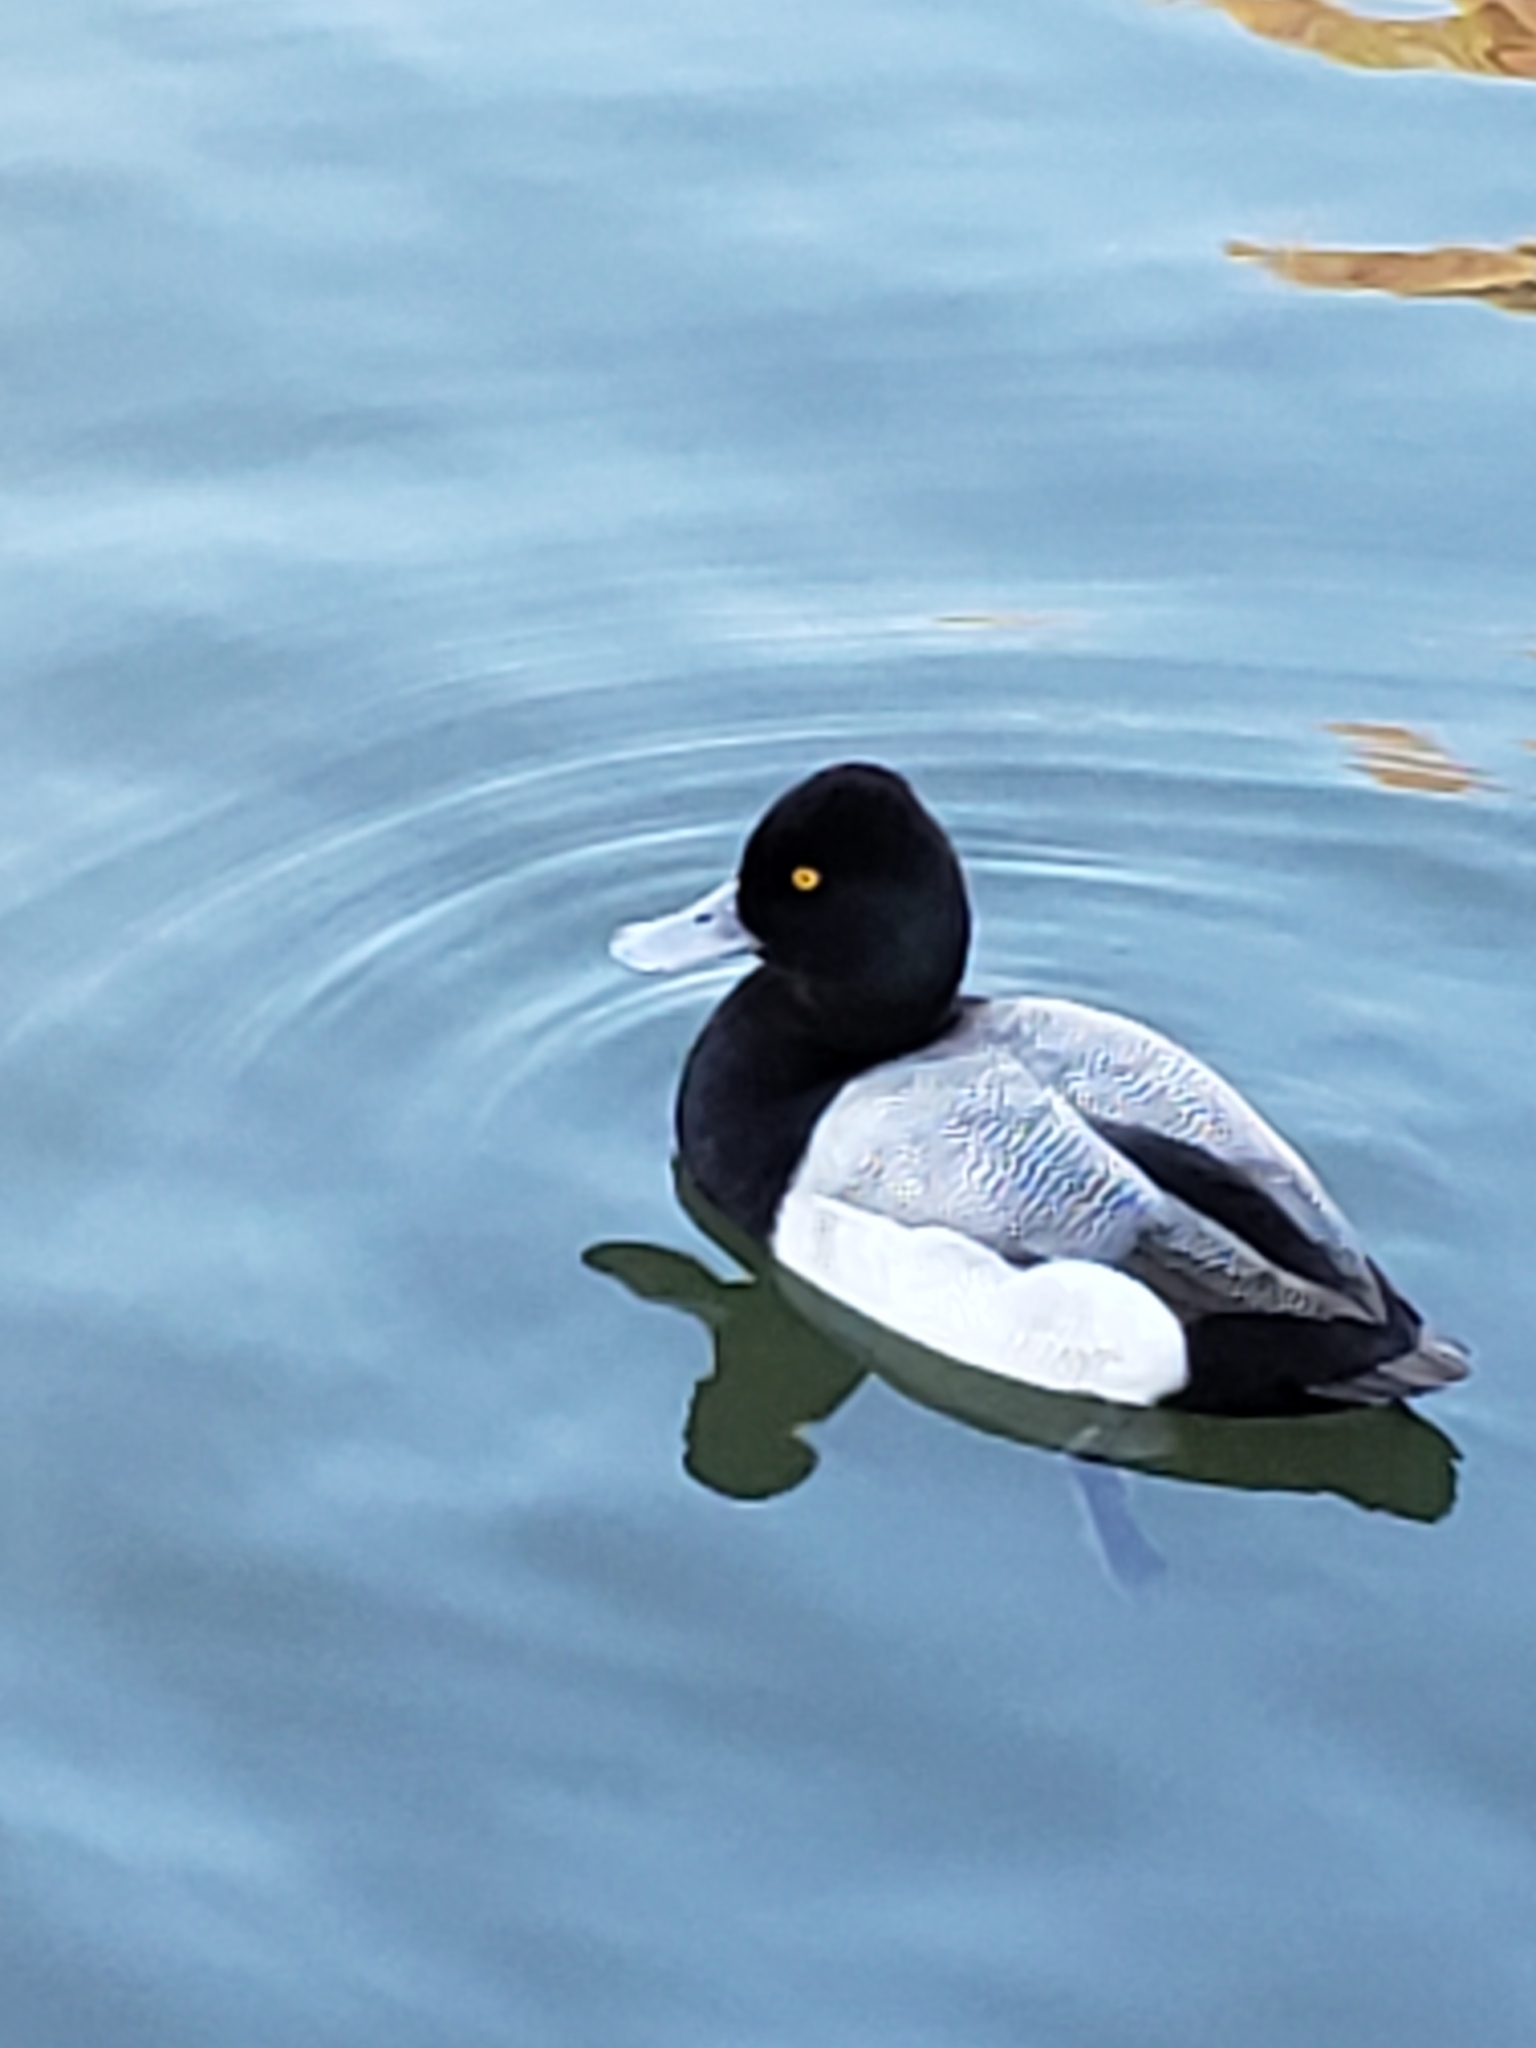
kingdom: Animalia
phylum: Chordata
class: Aves
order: Anseriformes
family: Anatidae
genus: Aythya
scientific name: Aythya affinis
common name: Lesser scaup
